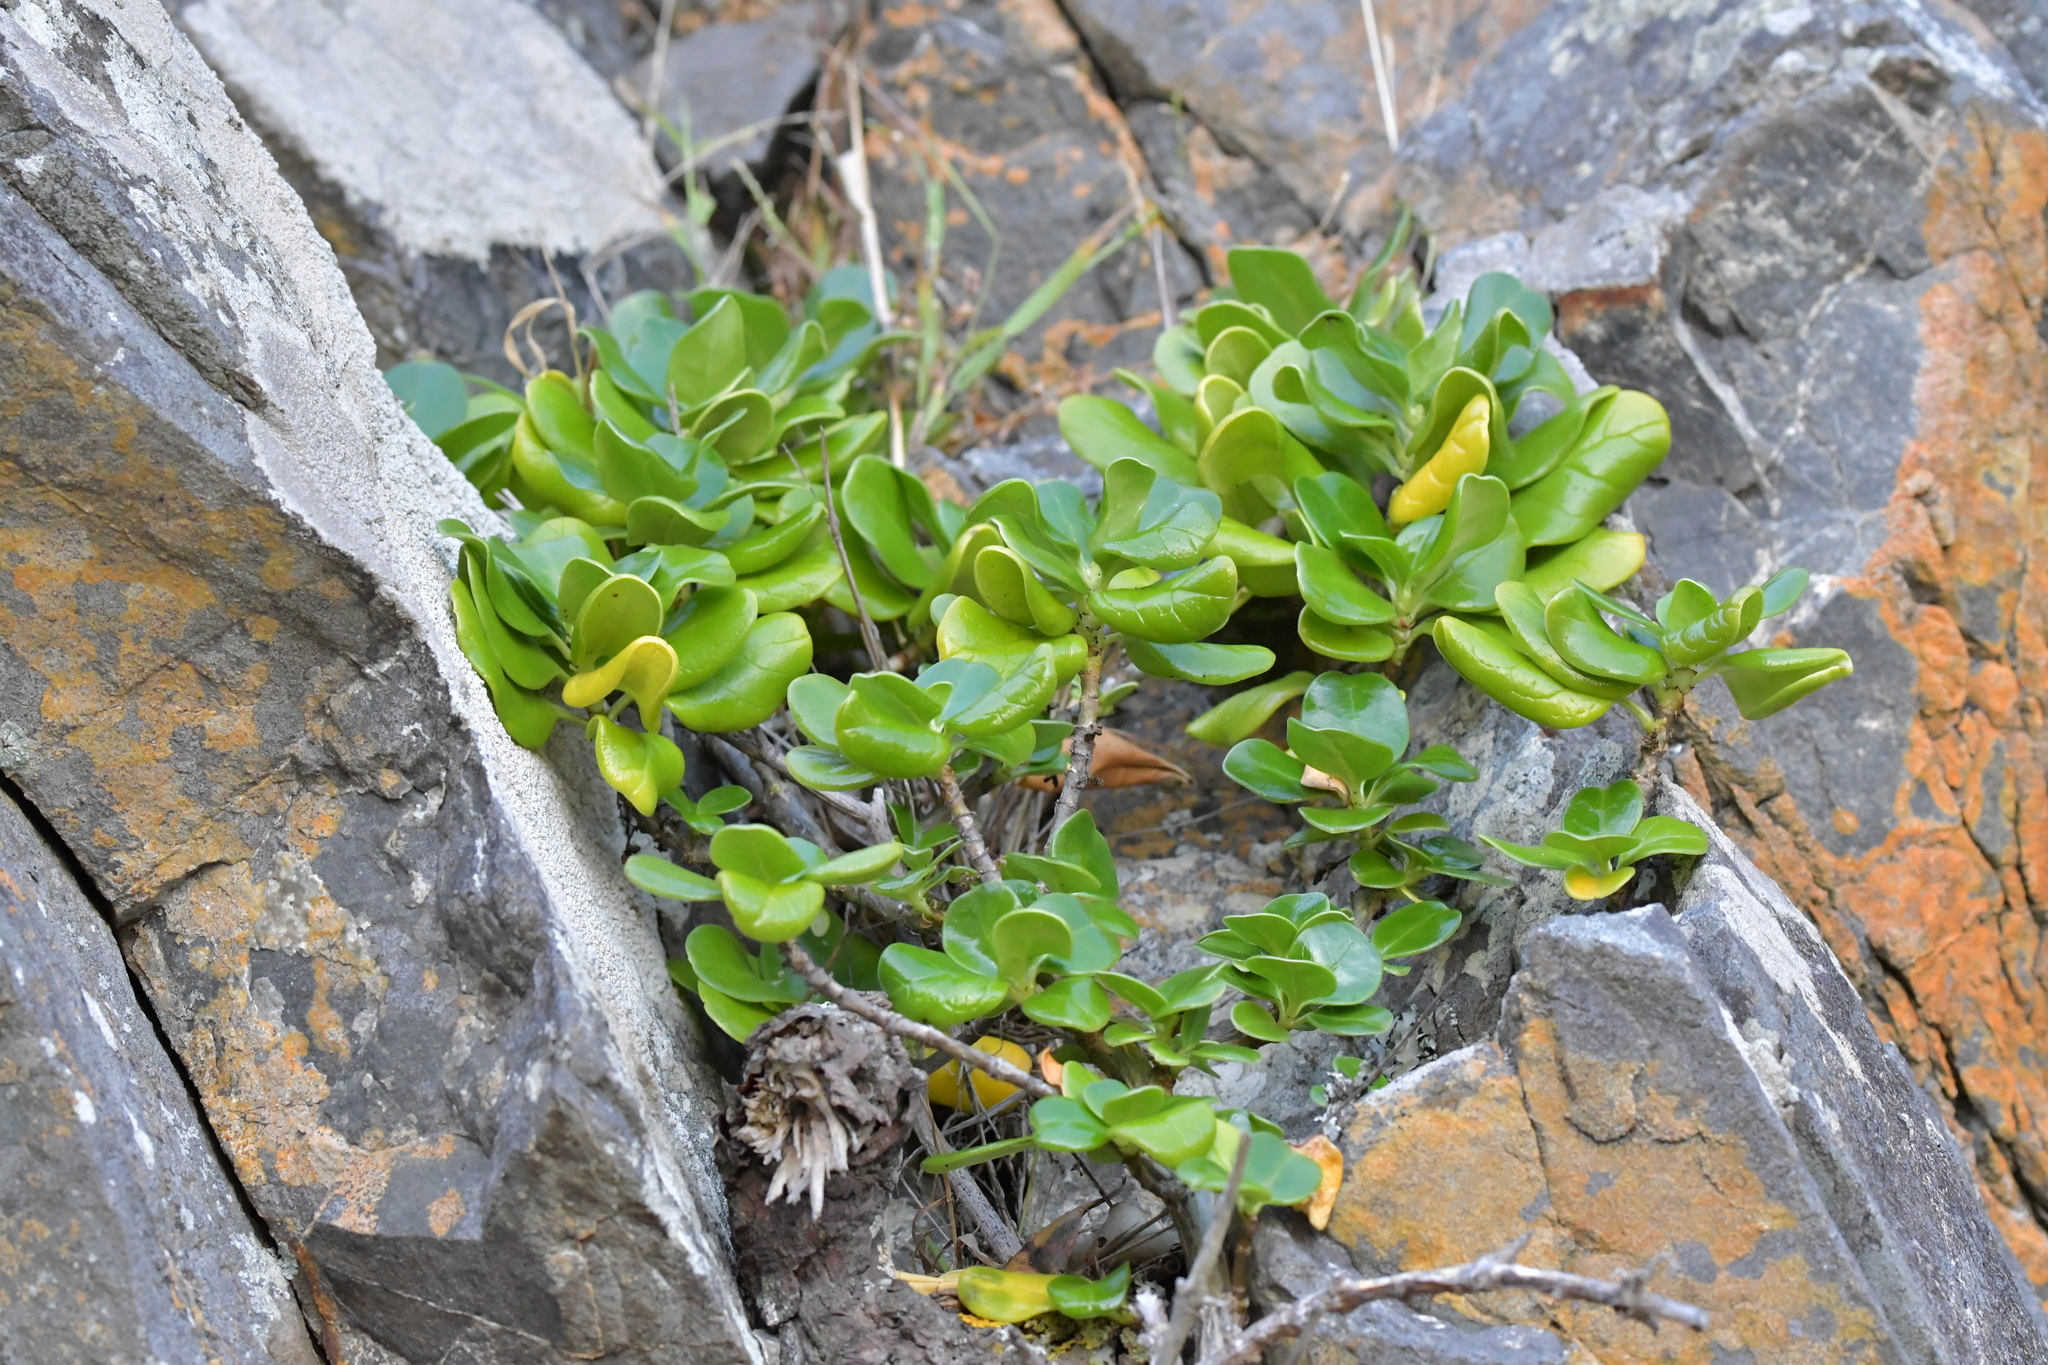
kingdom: Plantae
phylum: Tracheophyta
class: Magnoliopsida
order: Gentianales
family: Rubiaceae
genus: Coprosma
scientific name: Coprosma repens
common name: Tree bedstraw
